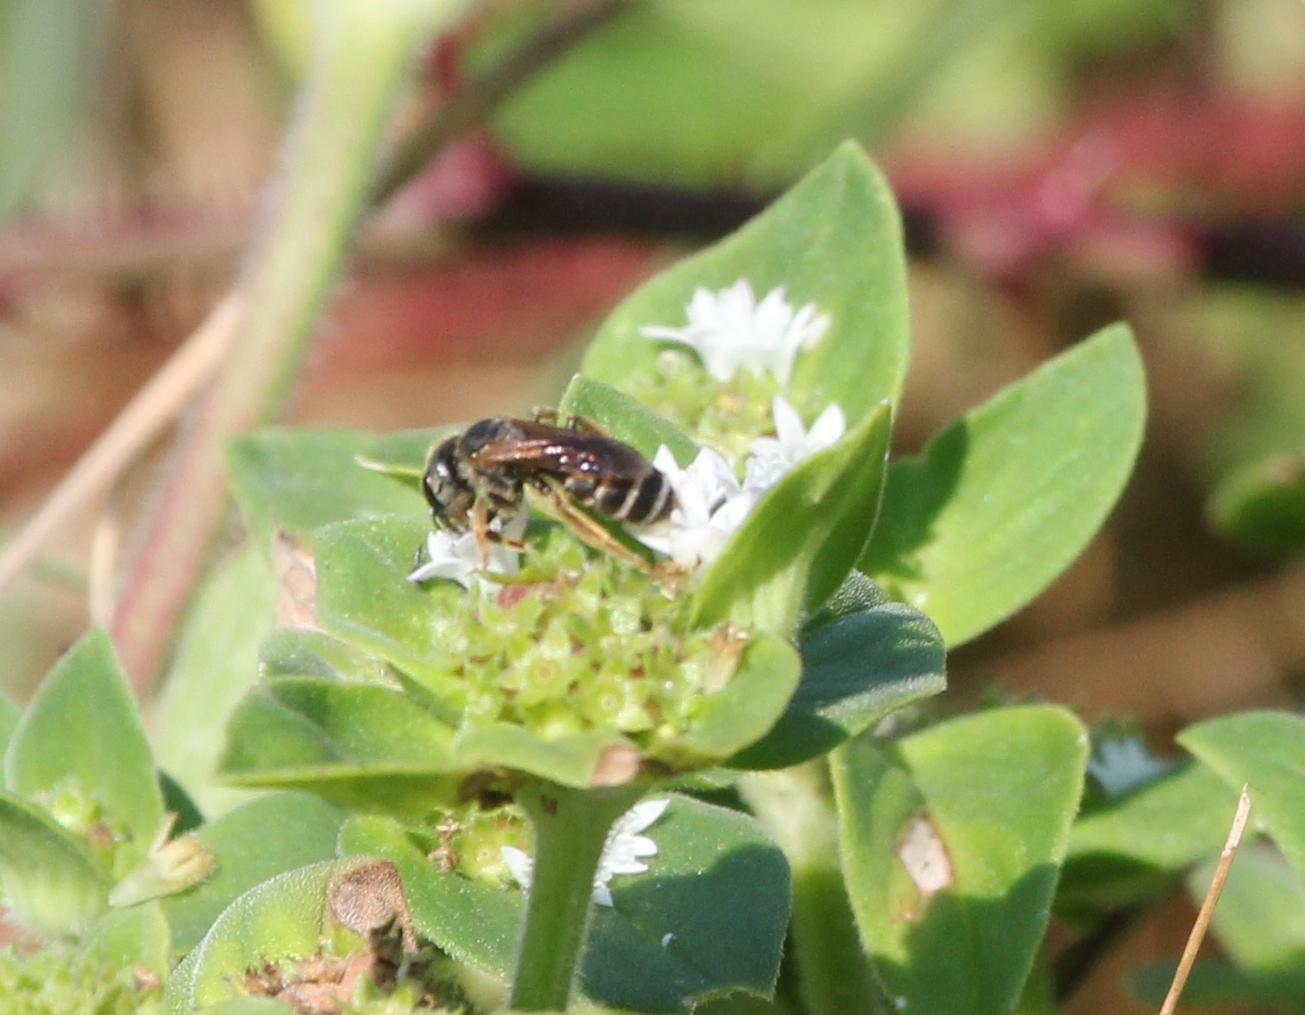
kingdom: Animalia
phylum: Arthropoda
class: Insecta
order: Hymenoptera
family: Halictidae
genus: Halictus
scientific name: Halictus poeyi
